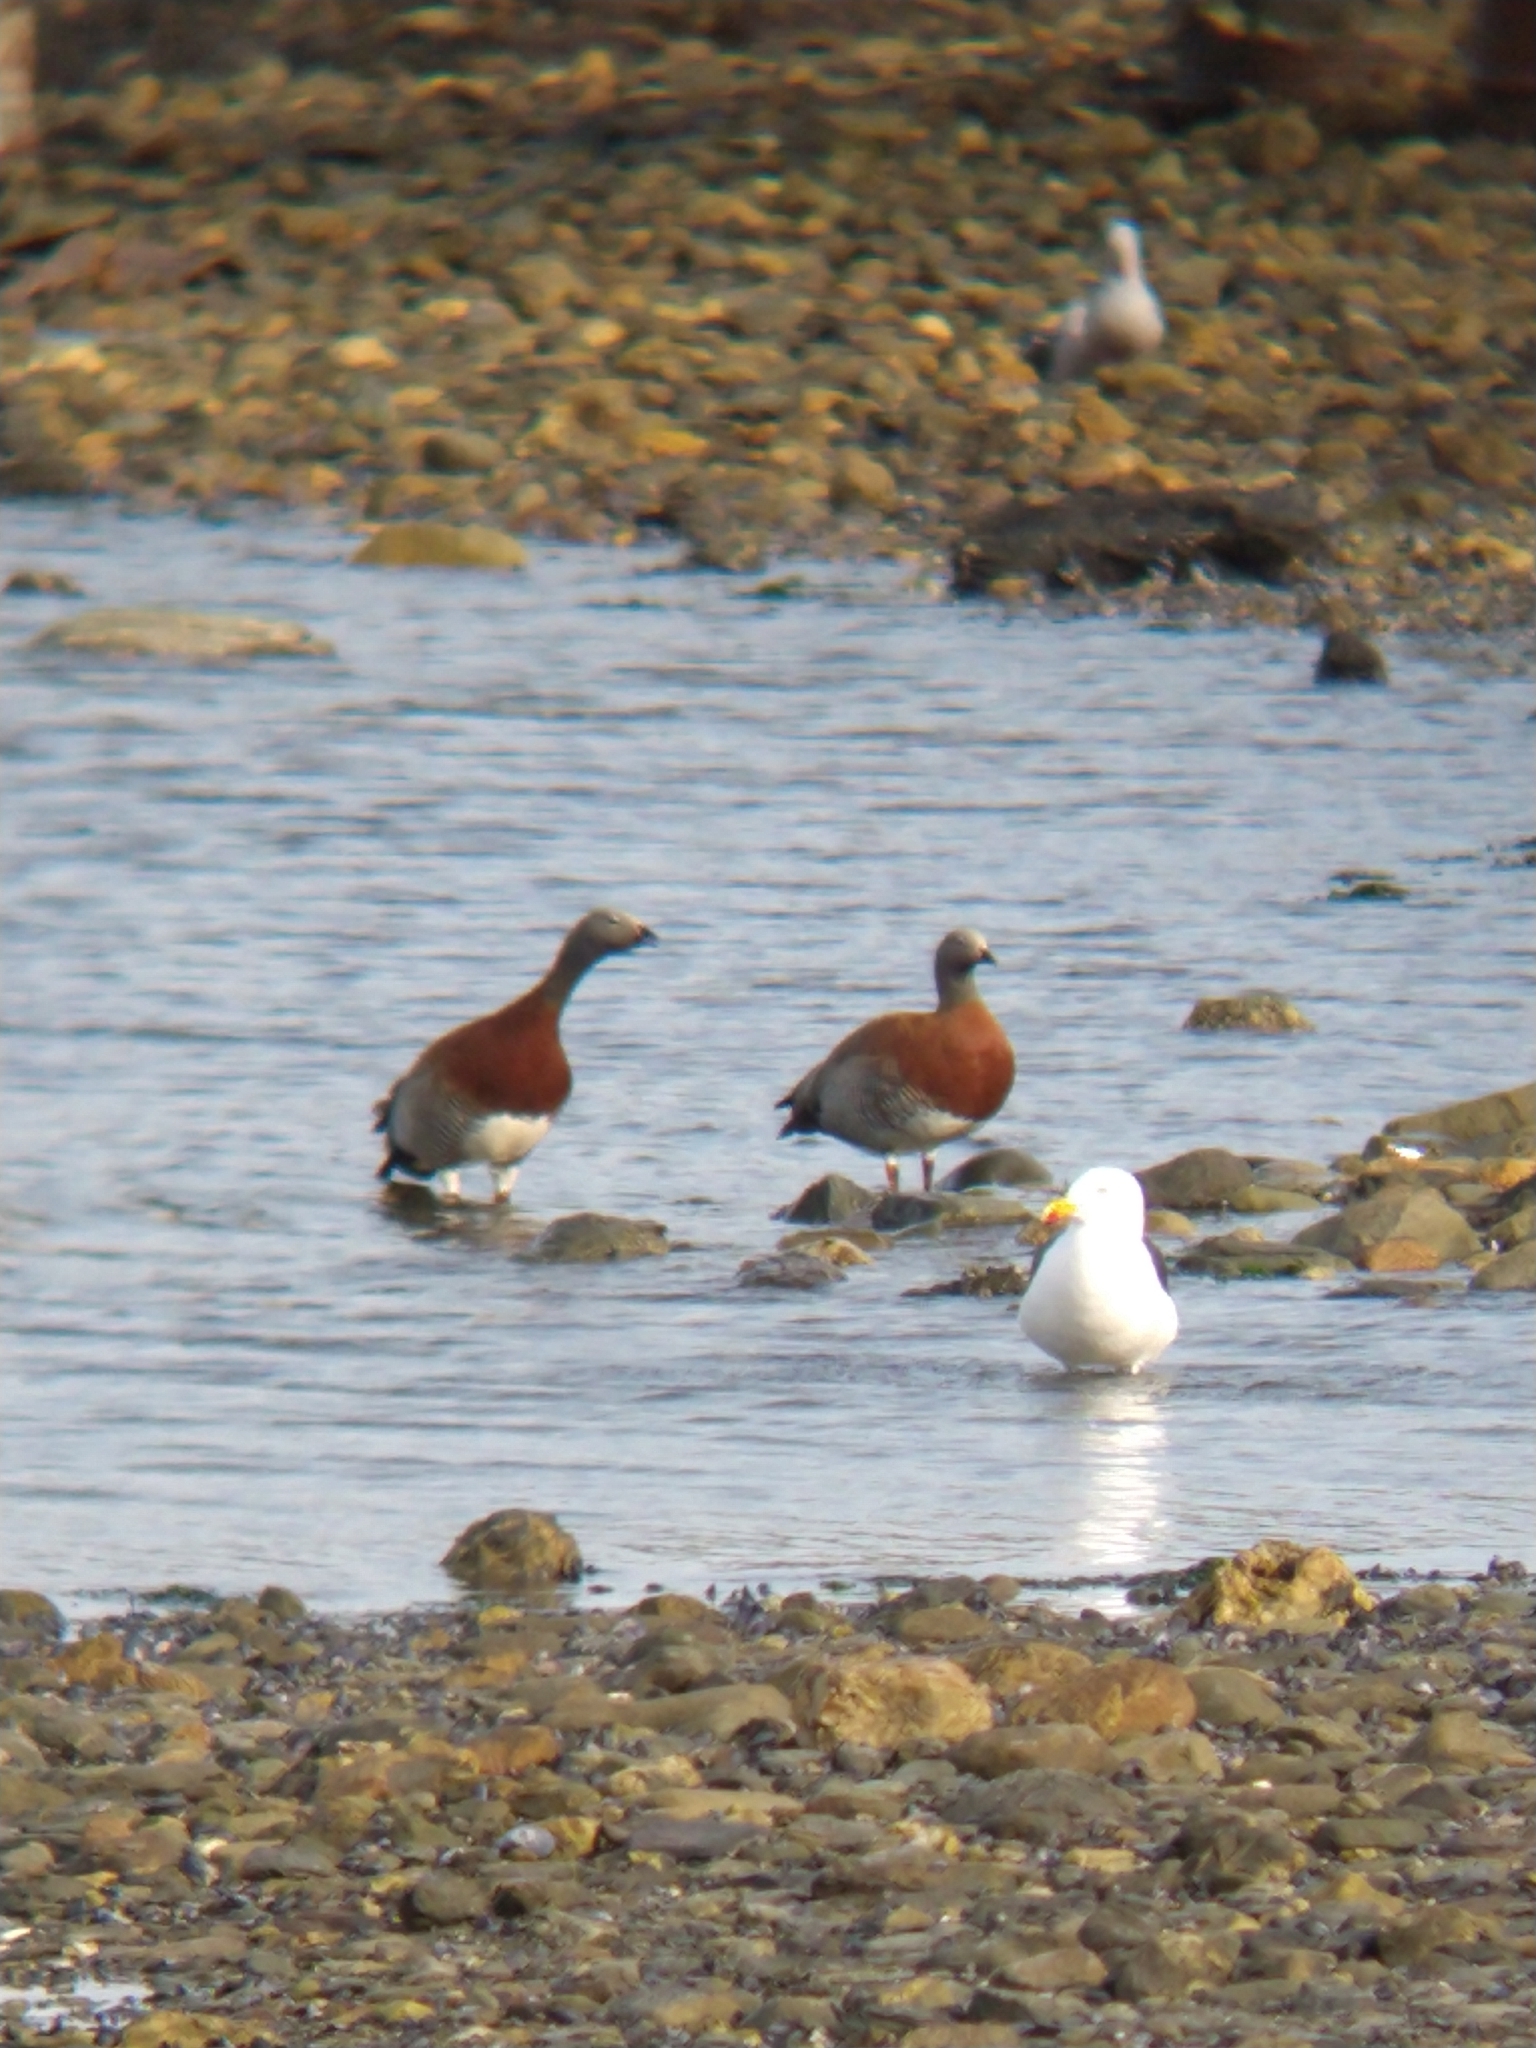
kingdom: Animalia
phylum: Chordata
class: Aves
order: Anseriformes
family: Anatidae
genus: Chloephaga
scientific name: Chloephaga poliocephala
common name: Ashy-headed goose
